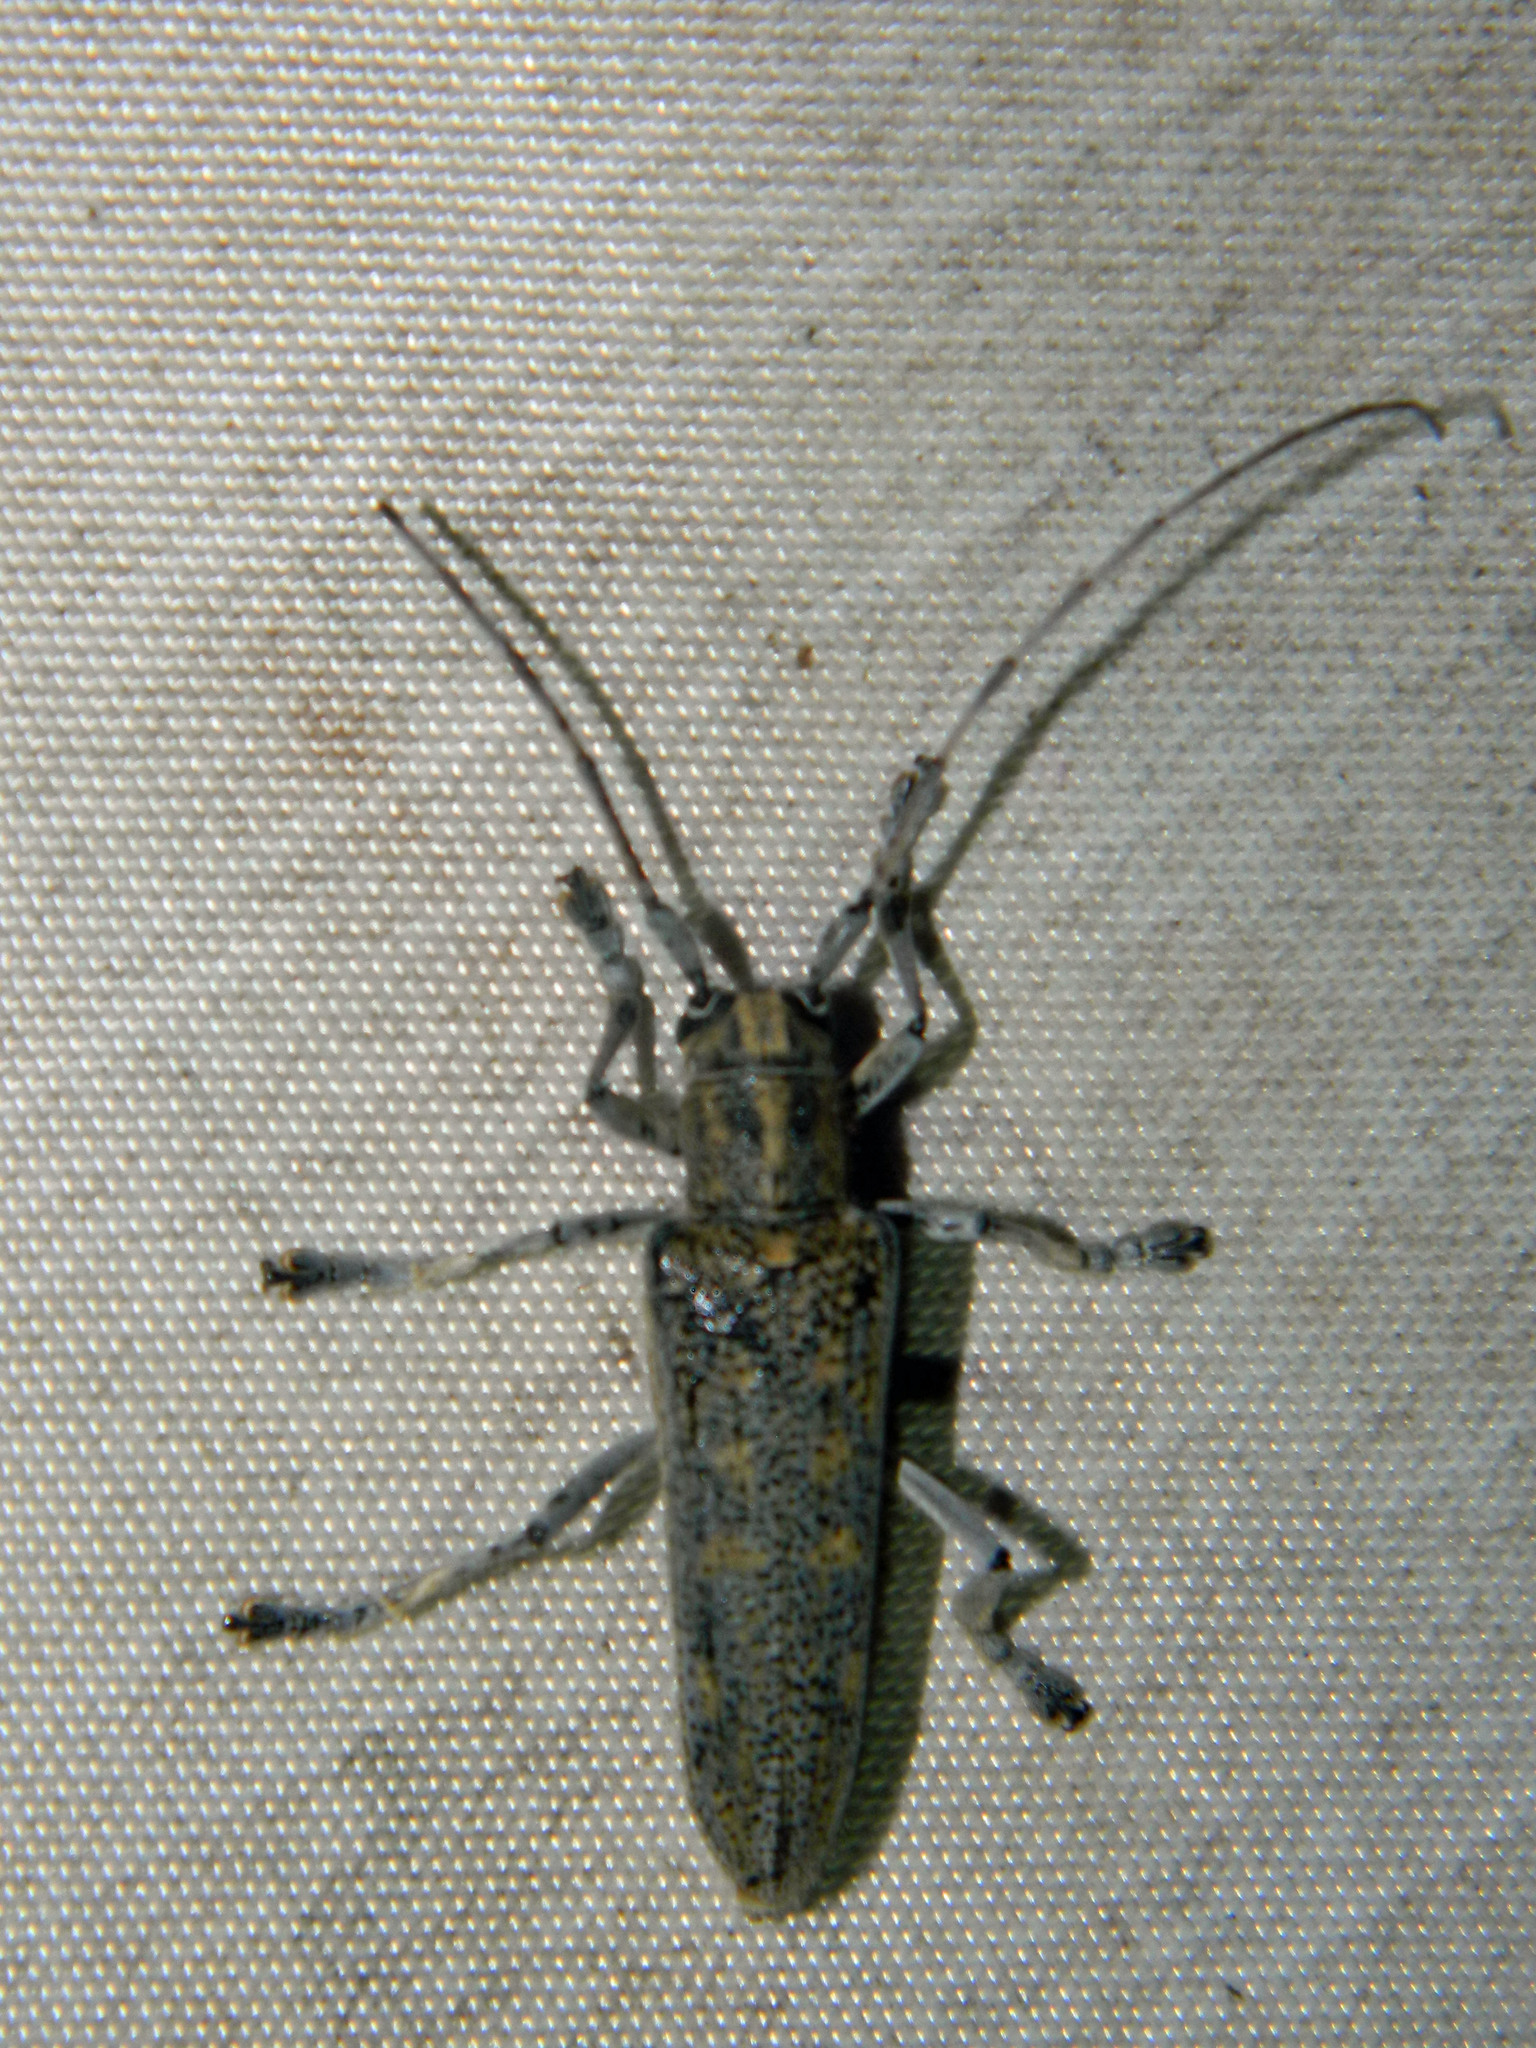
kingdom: Animalia
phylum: Arthropoda
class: Insecta
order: Coleoptera
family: Cerambycidae
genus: Saperda
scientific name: Saperda calcarata
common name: Poplar borer
